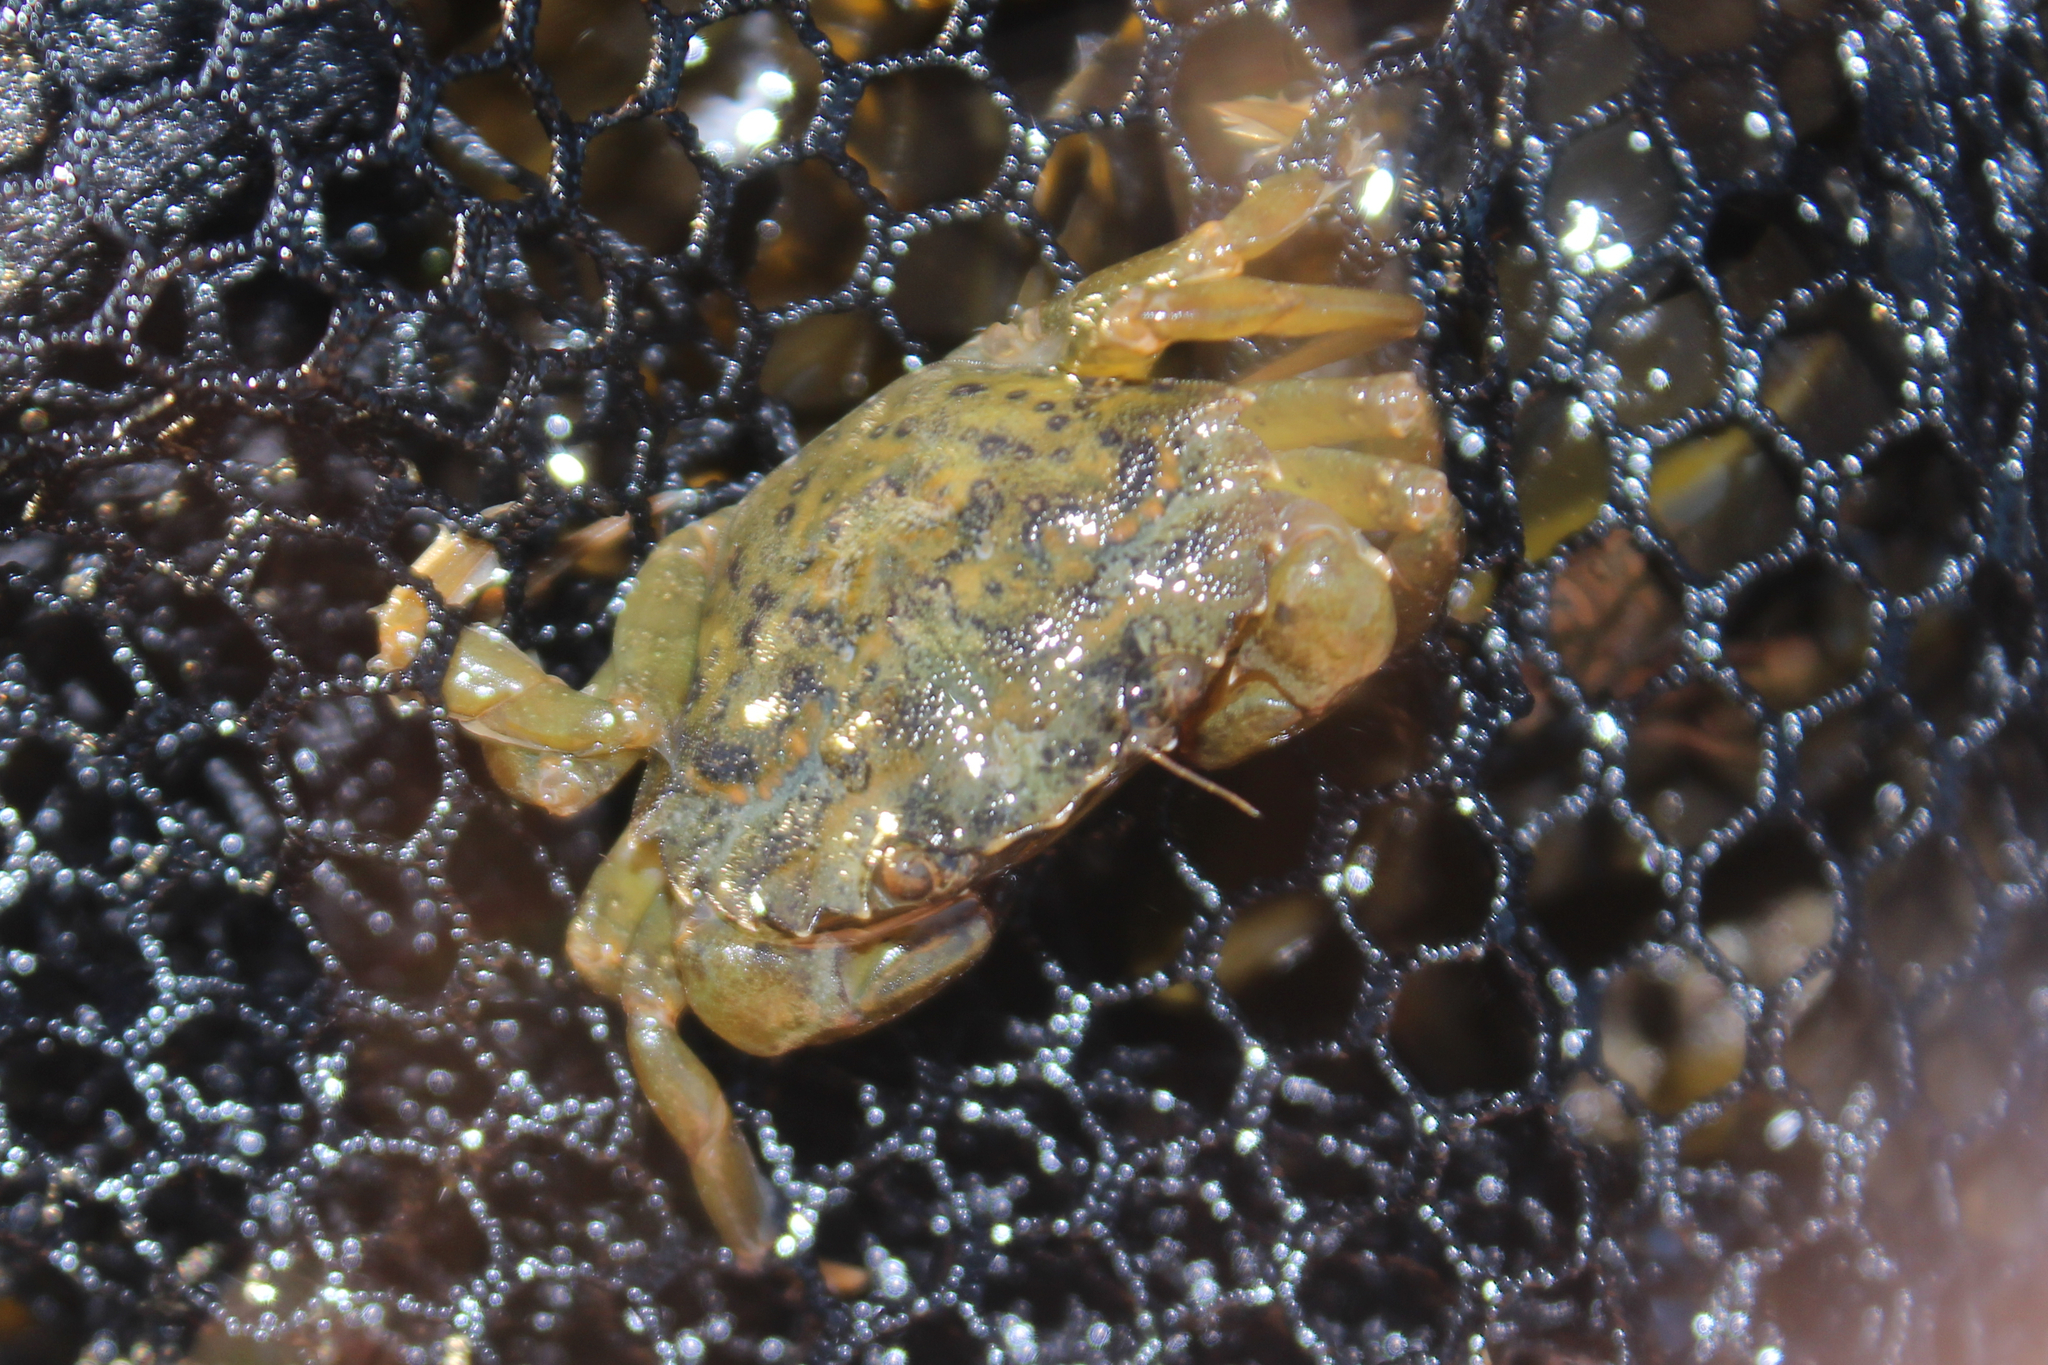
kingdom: Animalia
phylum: Arthropoda
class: Malacostraca
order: Decapoda
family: Carcinidae
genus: Carcinus
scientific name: Carcinus maenas
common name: European green crab
